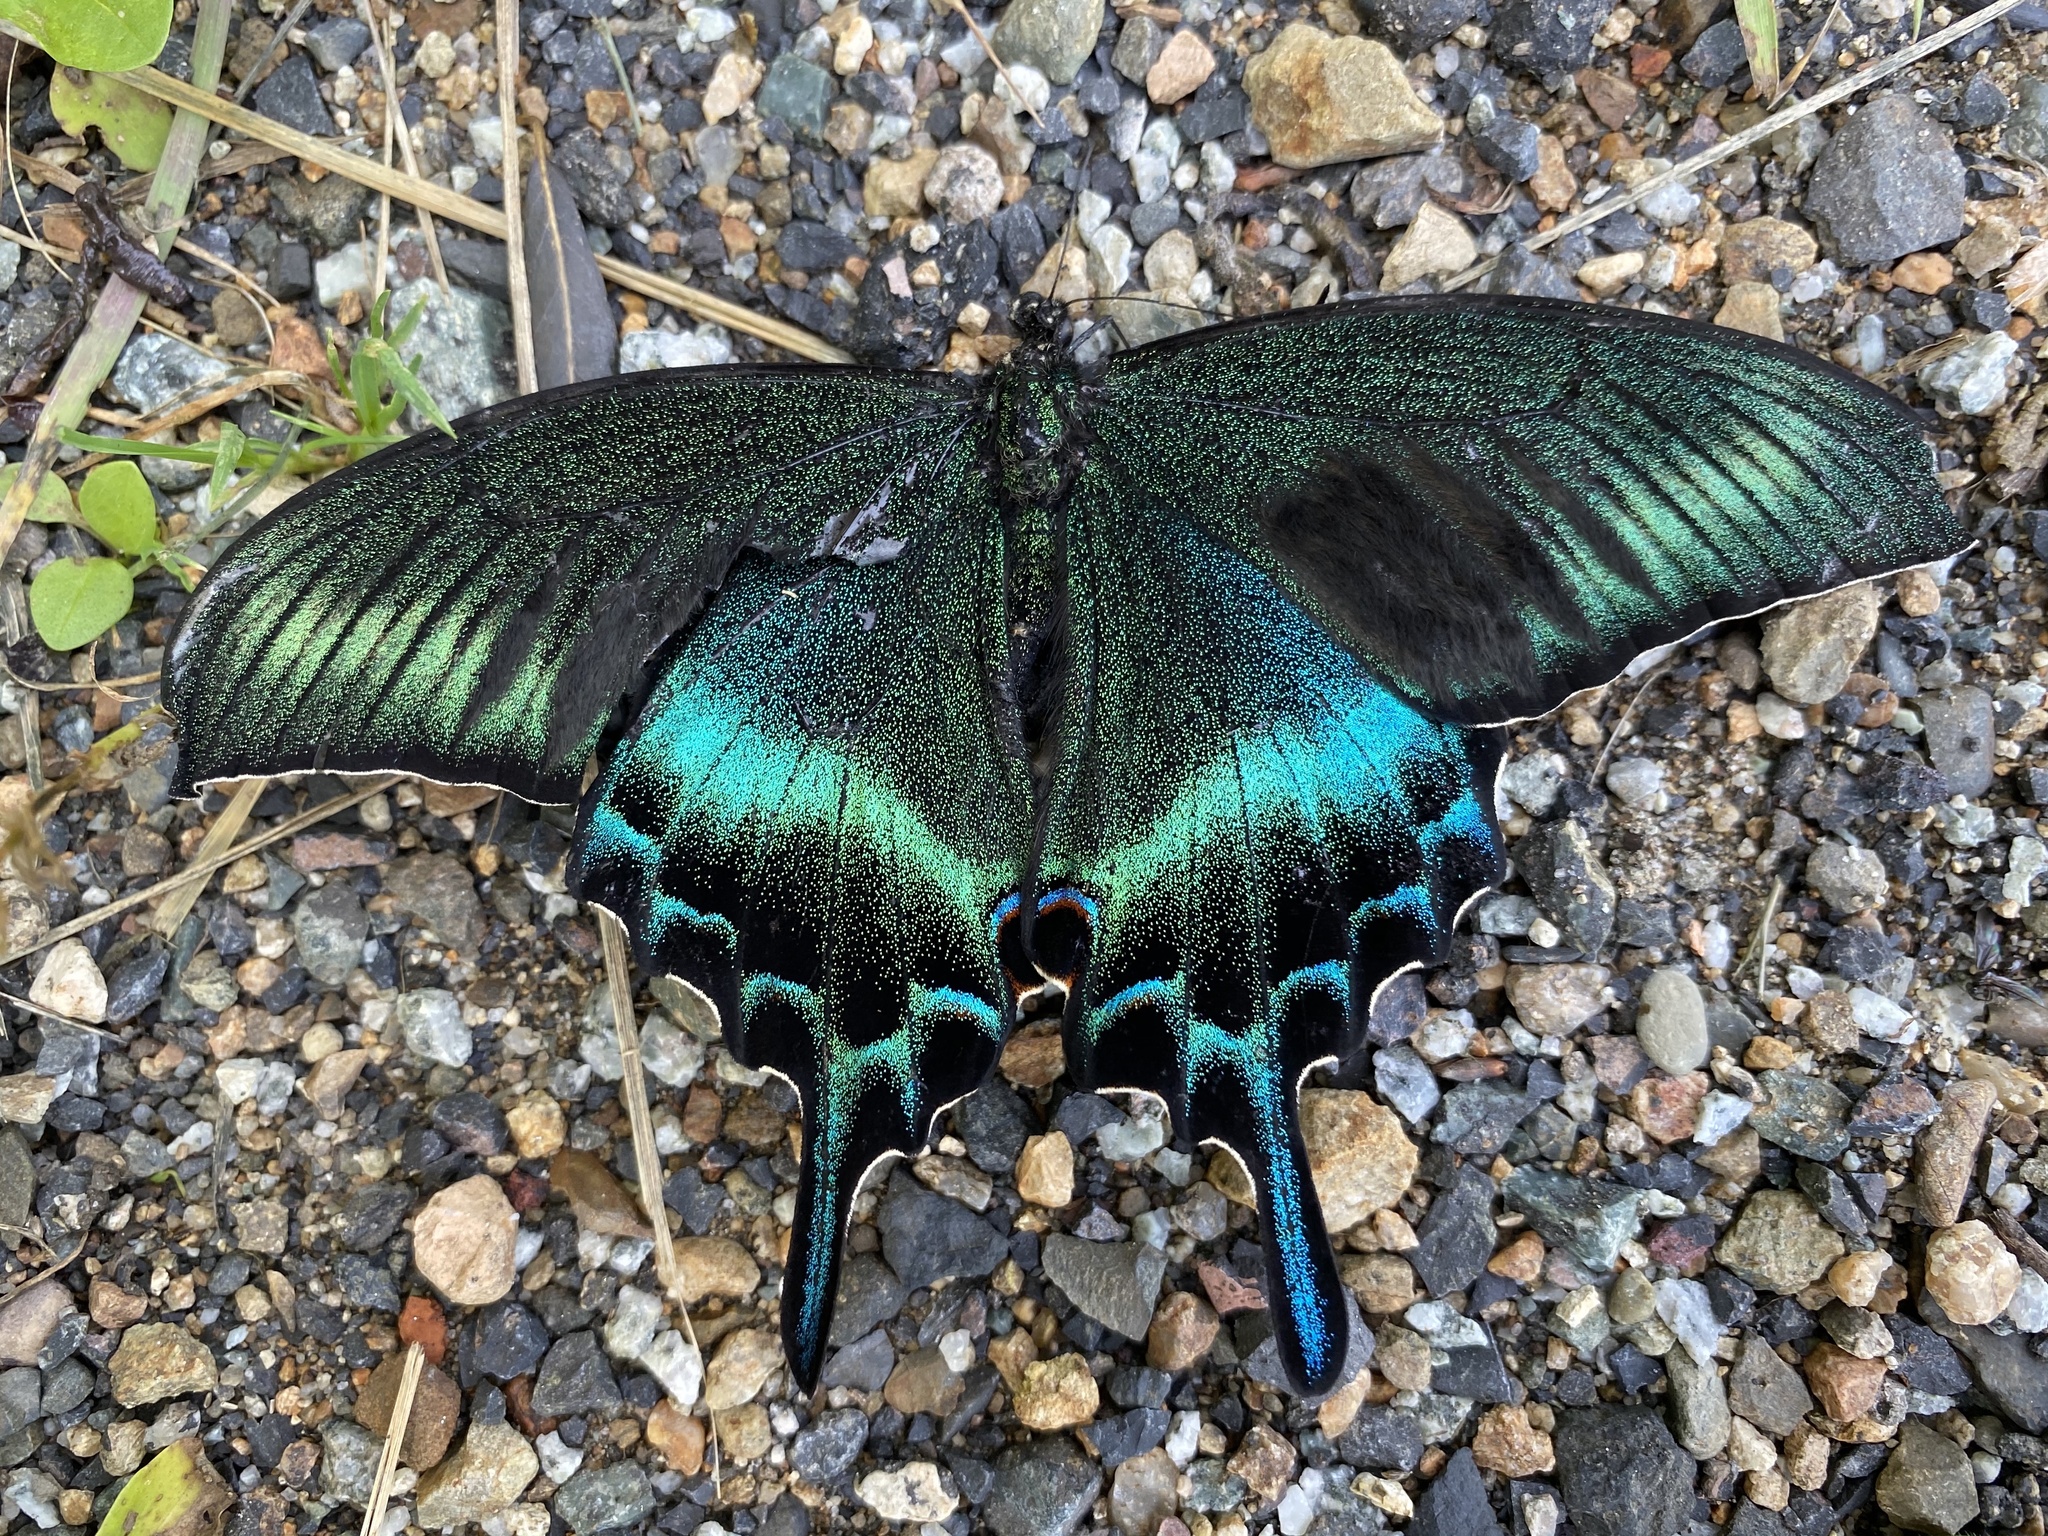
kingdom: Animalia
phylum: Arthropoda
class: Insecta
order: Lepidoptera
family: Papilionidae
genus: Papilio
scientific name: Papilio maackii
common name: Alpine black swallowtail
